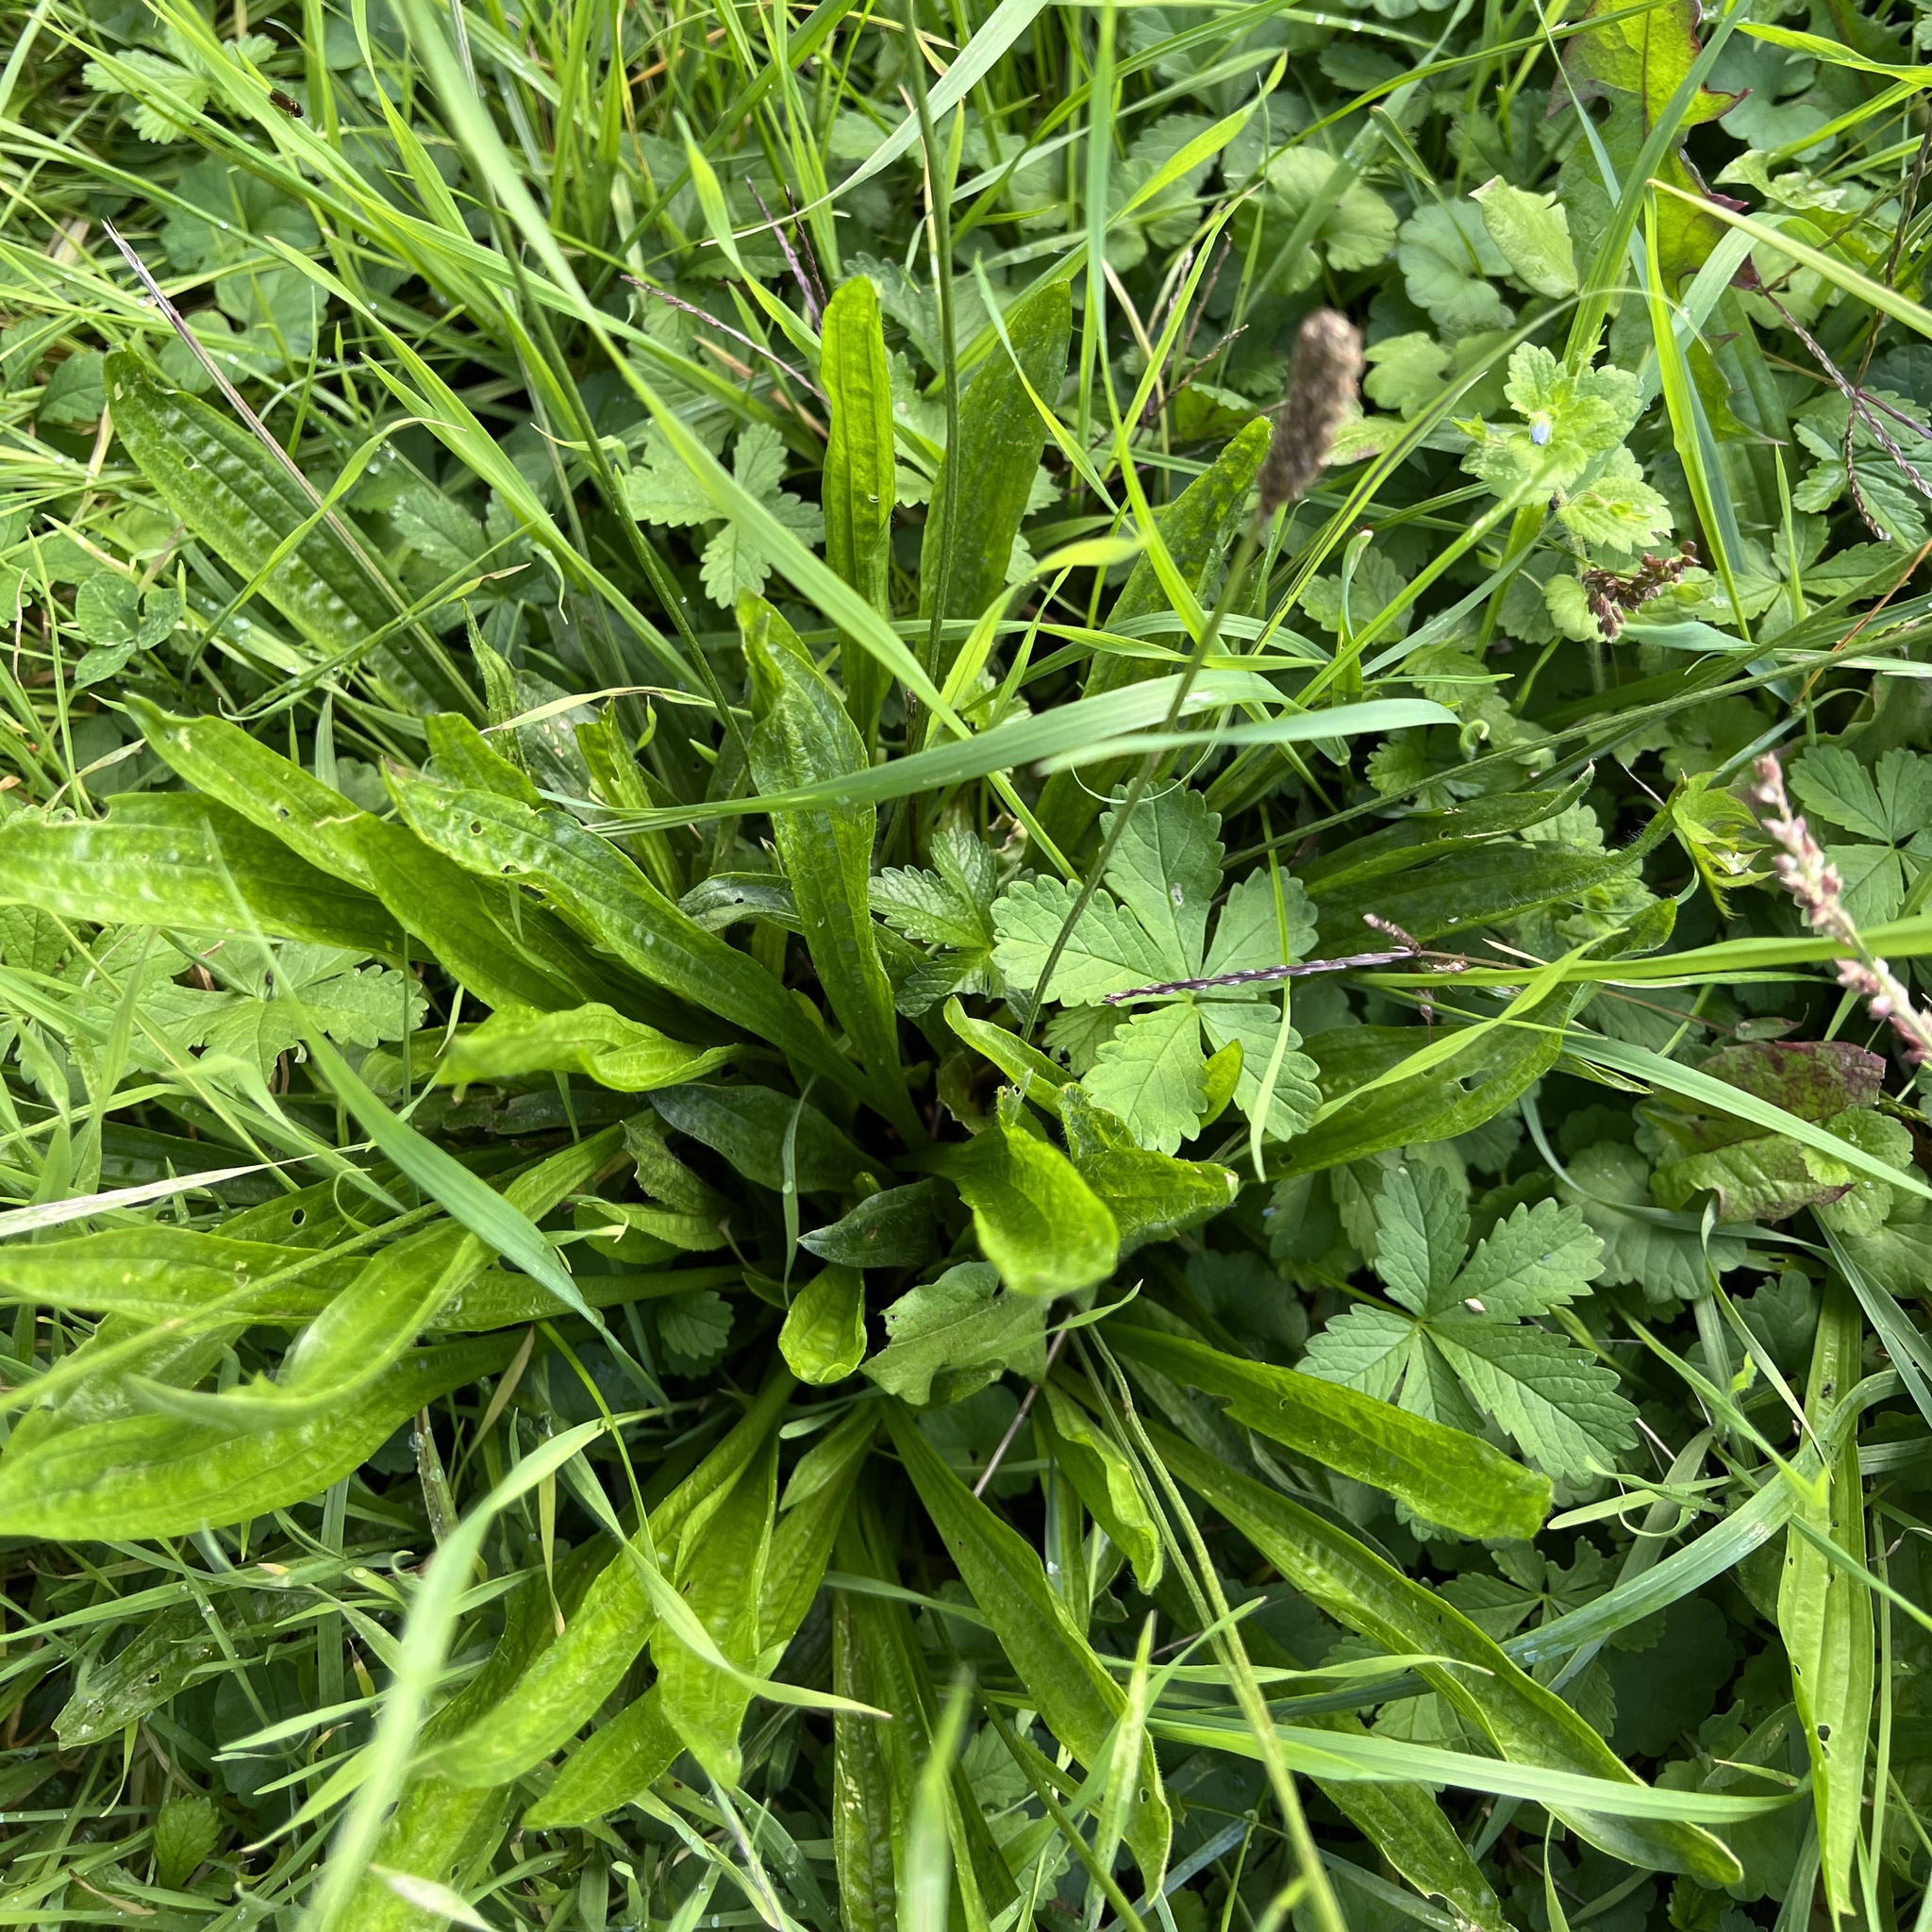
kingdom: Plantae
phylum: Tracheophyta
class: Magnoliopsida
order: Lamiales
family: Plantaginaceae
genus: Plantago
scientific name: Plantago lanceolata
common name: Ribwort plantain
